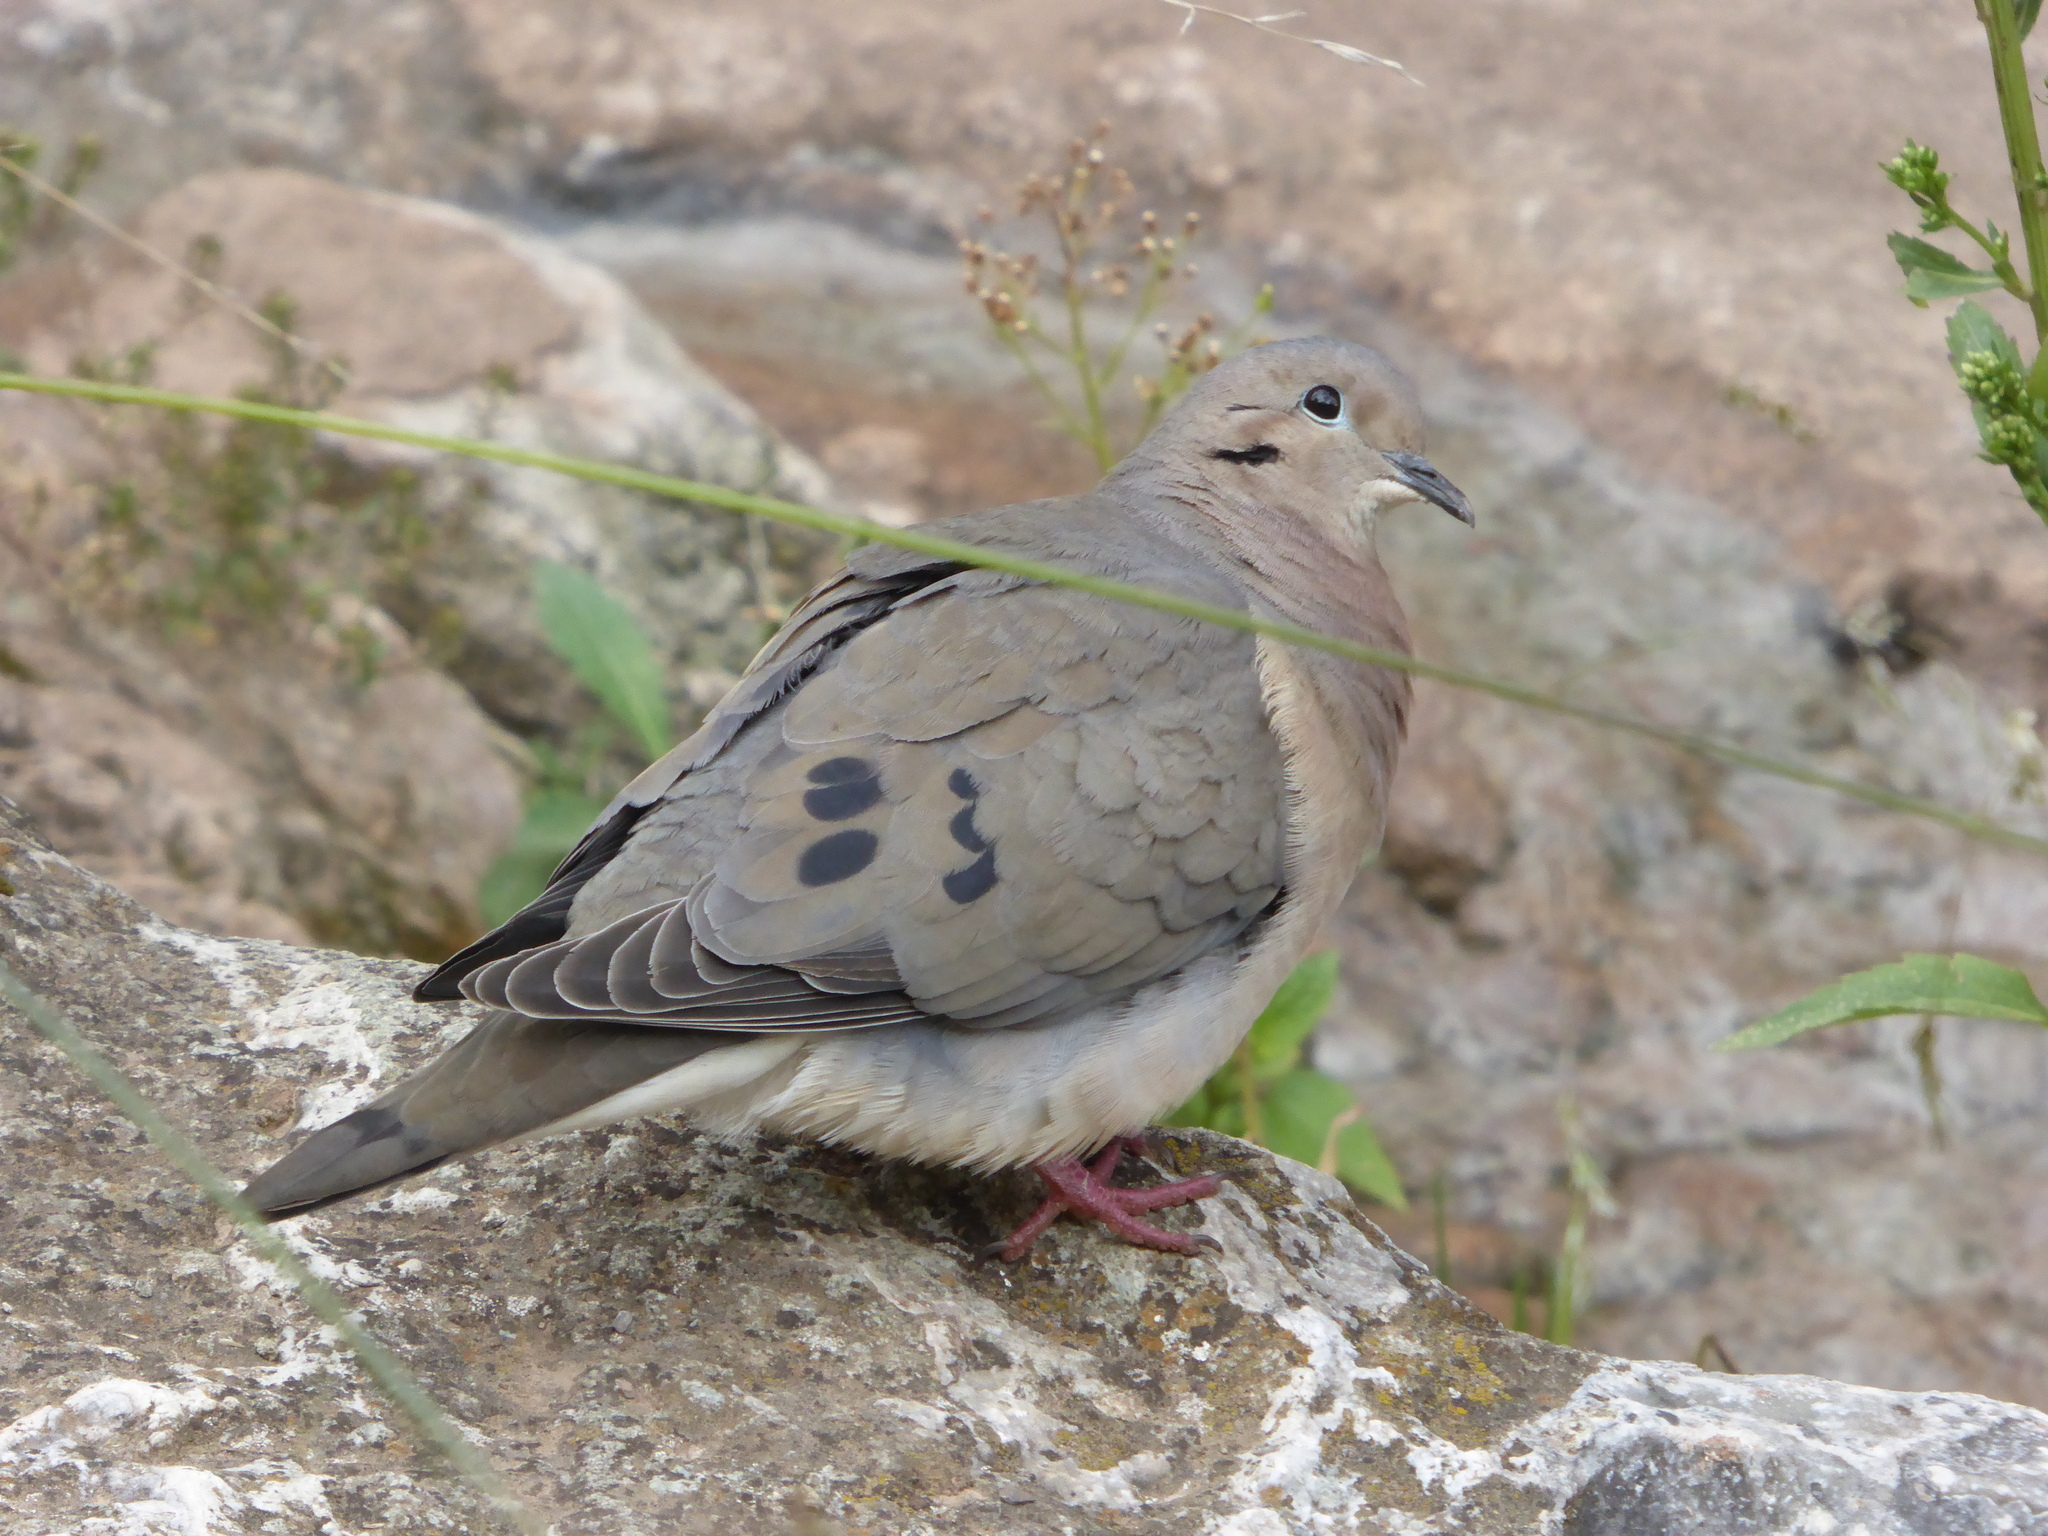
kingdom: Animalia
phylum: Chordata
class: Aves
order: Columbiformes
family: Columbidae
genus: Zenaida
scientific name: Zenaida auriculata
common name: Eared dove
